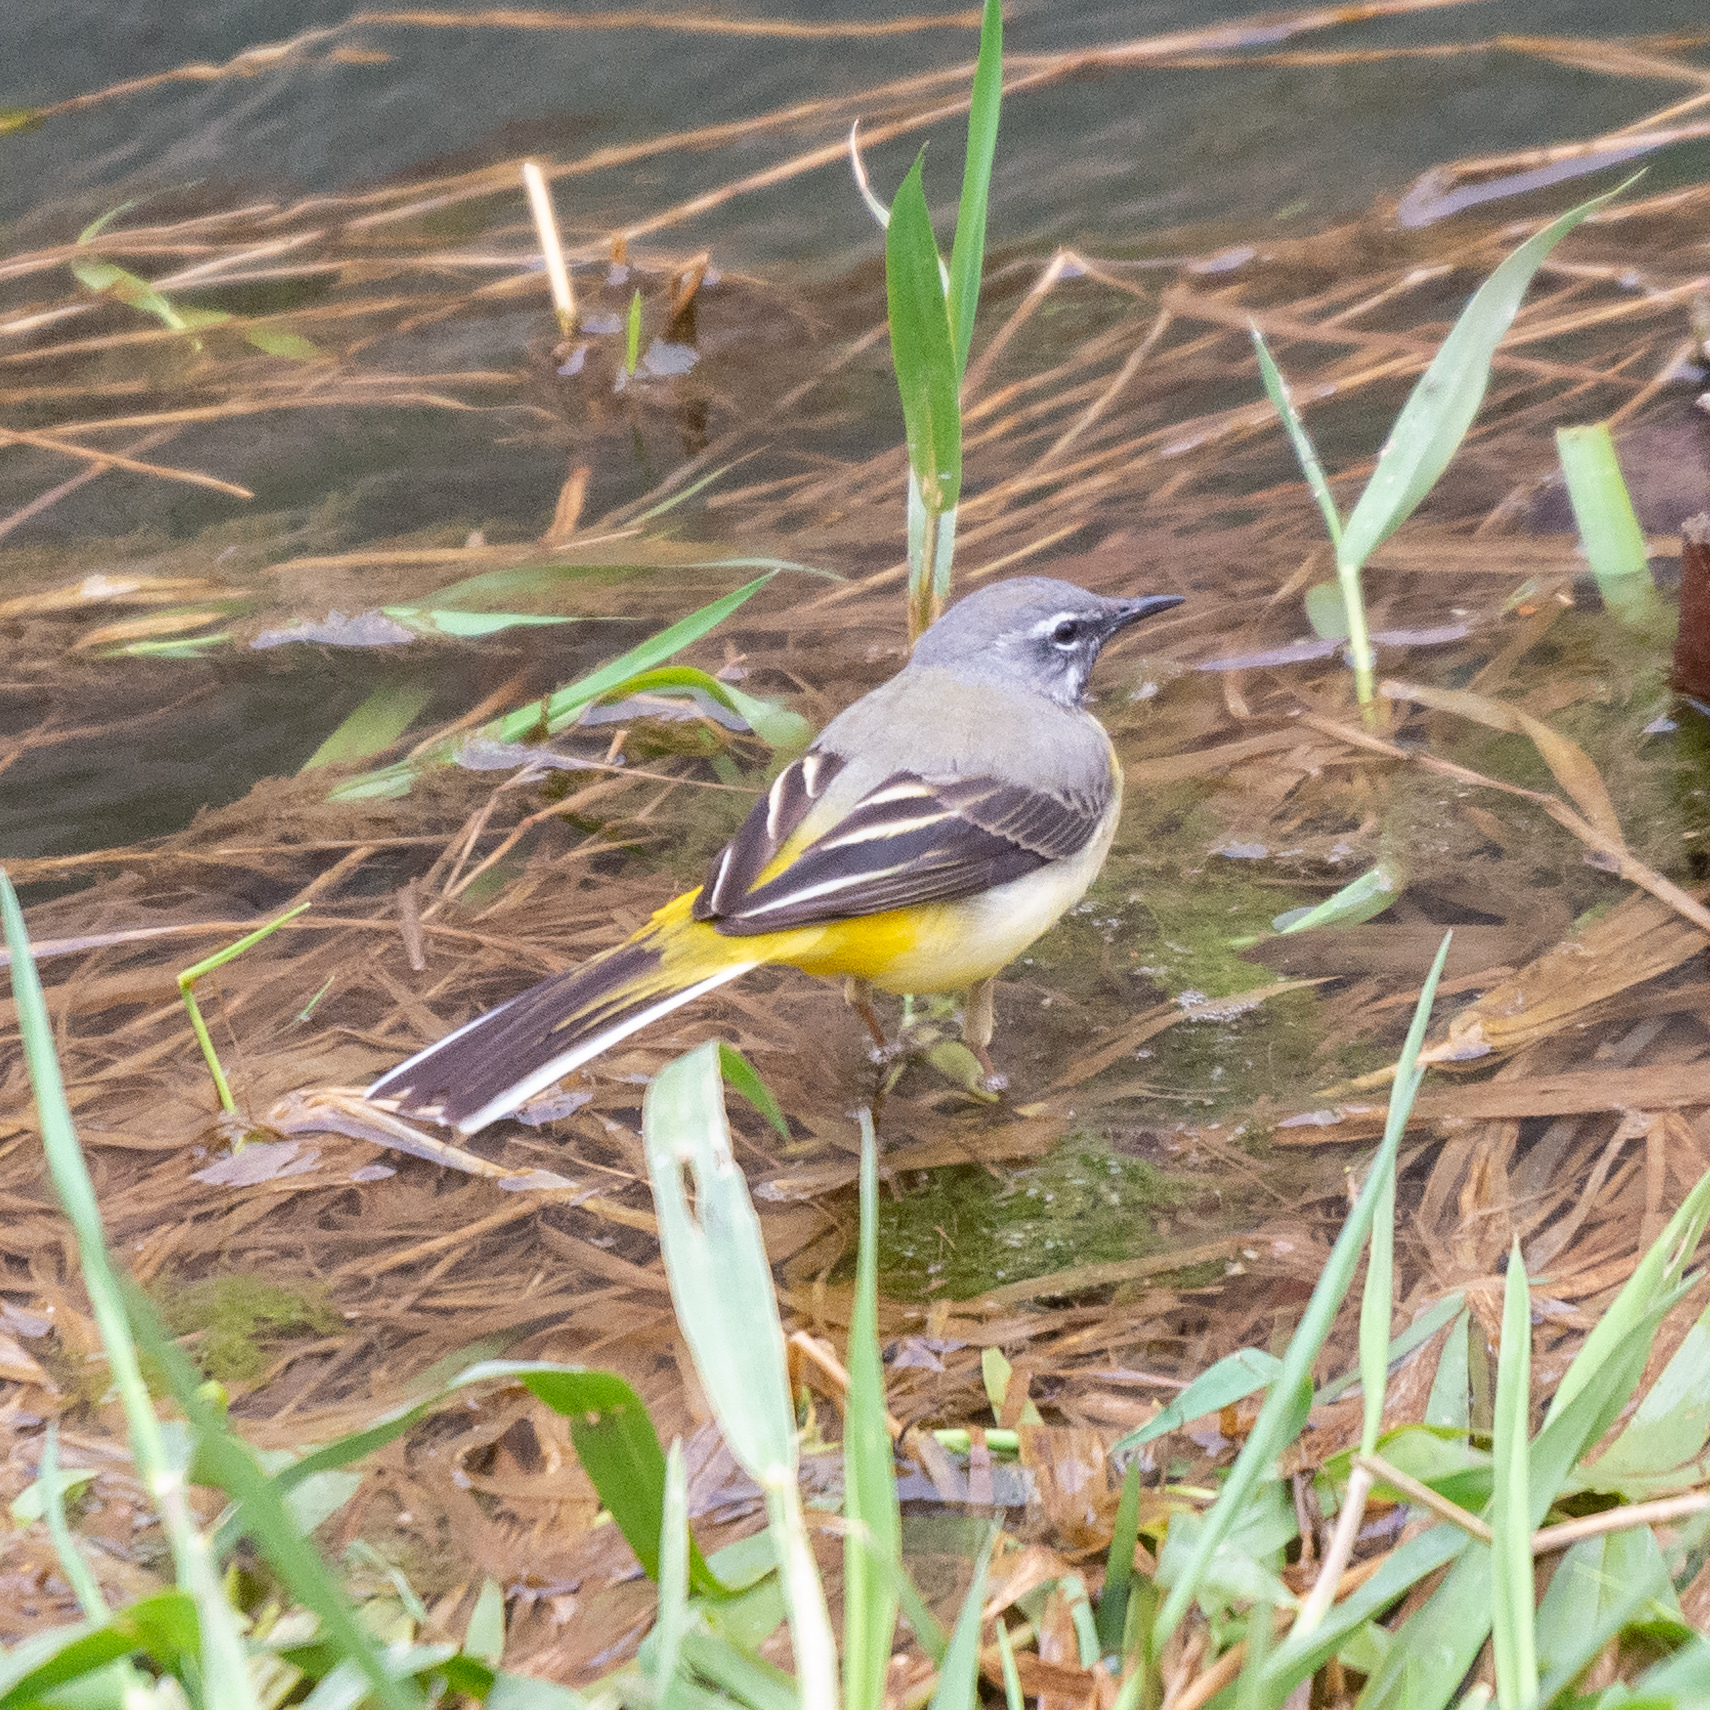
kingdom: Animalia
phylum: Chordata
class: Aves
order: Passeriformes
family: Motacillidae
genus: Motacilla
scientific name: Motacilla cinerea
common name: Grey wagtail
